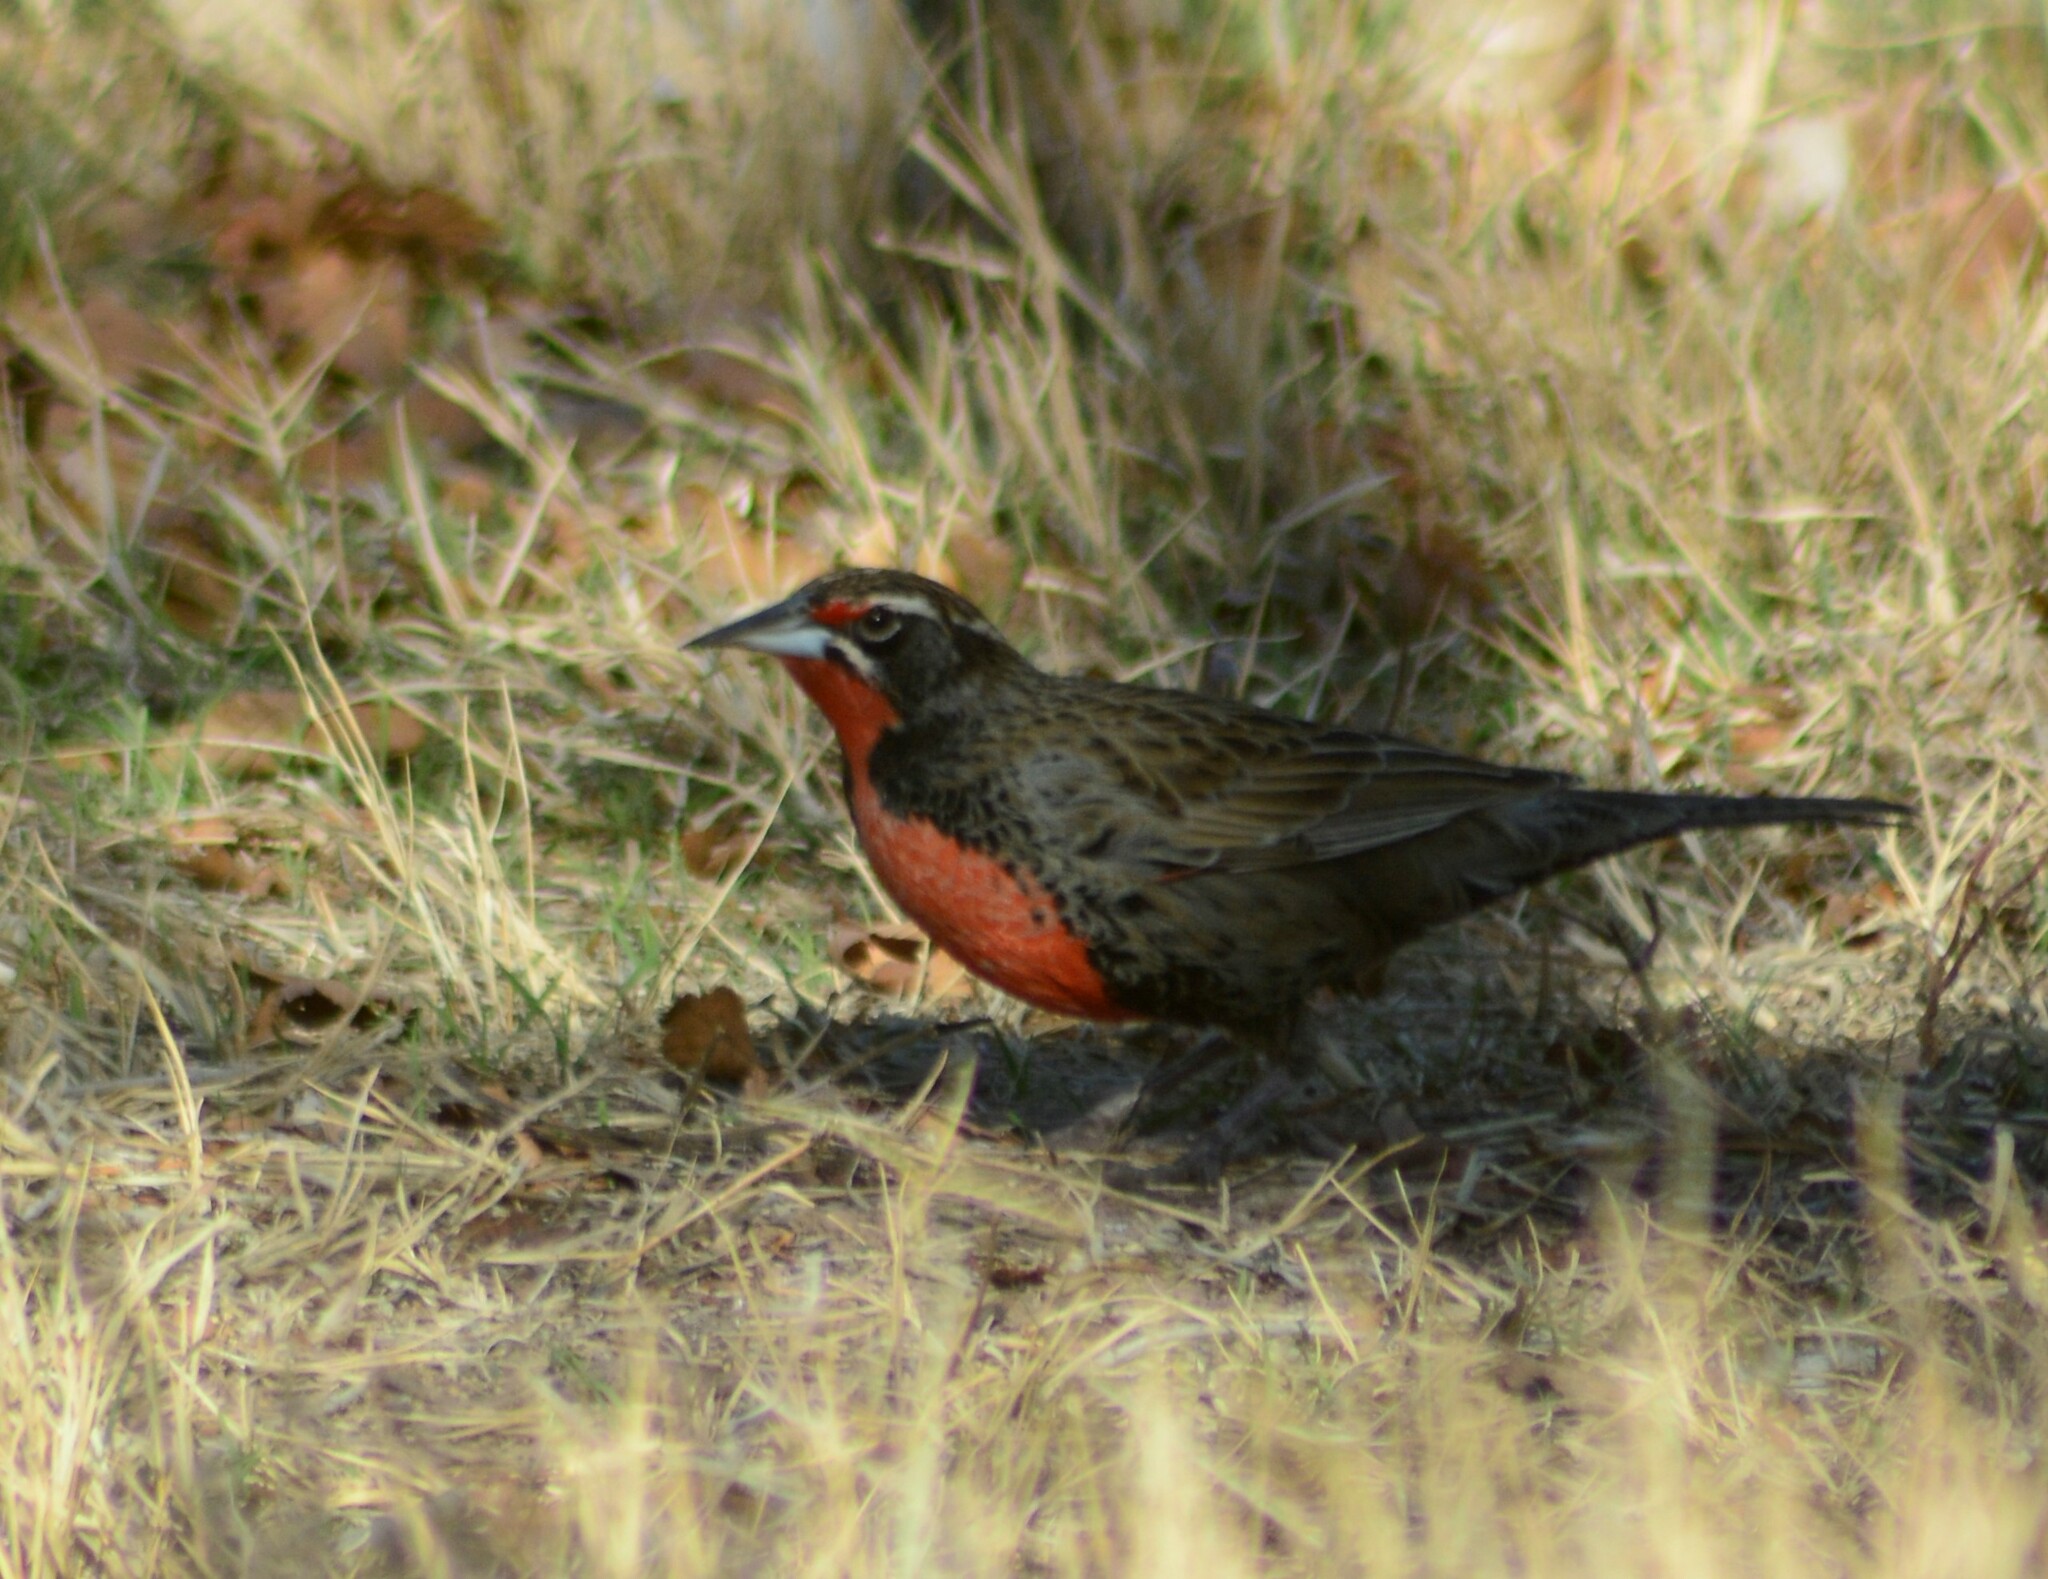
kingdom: Animalia
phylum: Chordata
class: Aves
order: Passeriformes
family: Icteridae
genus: Sturnella
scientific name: Sturnella loyca
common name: Long-tailed meadowlark
